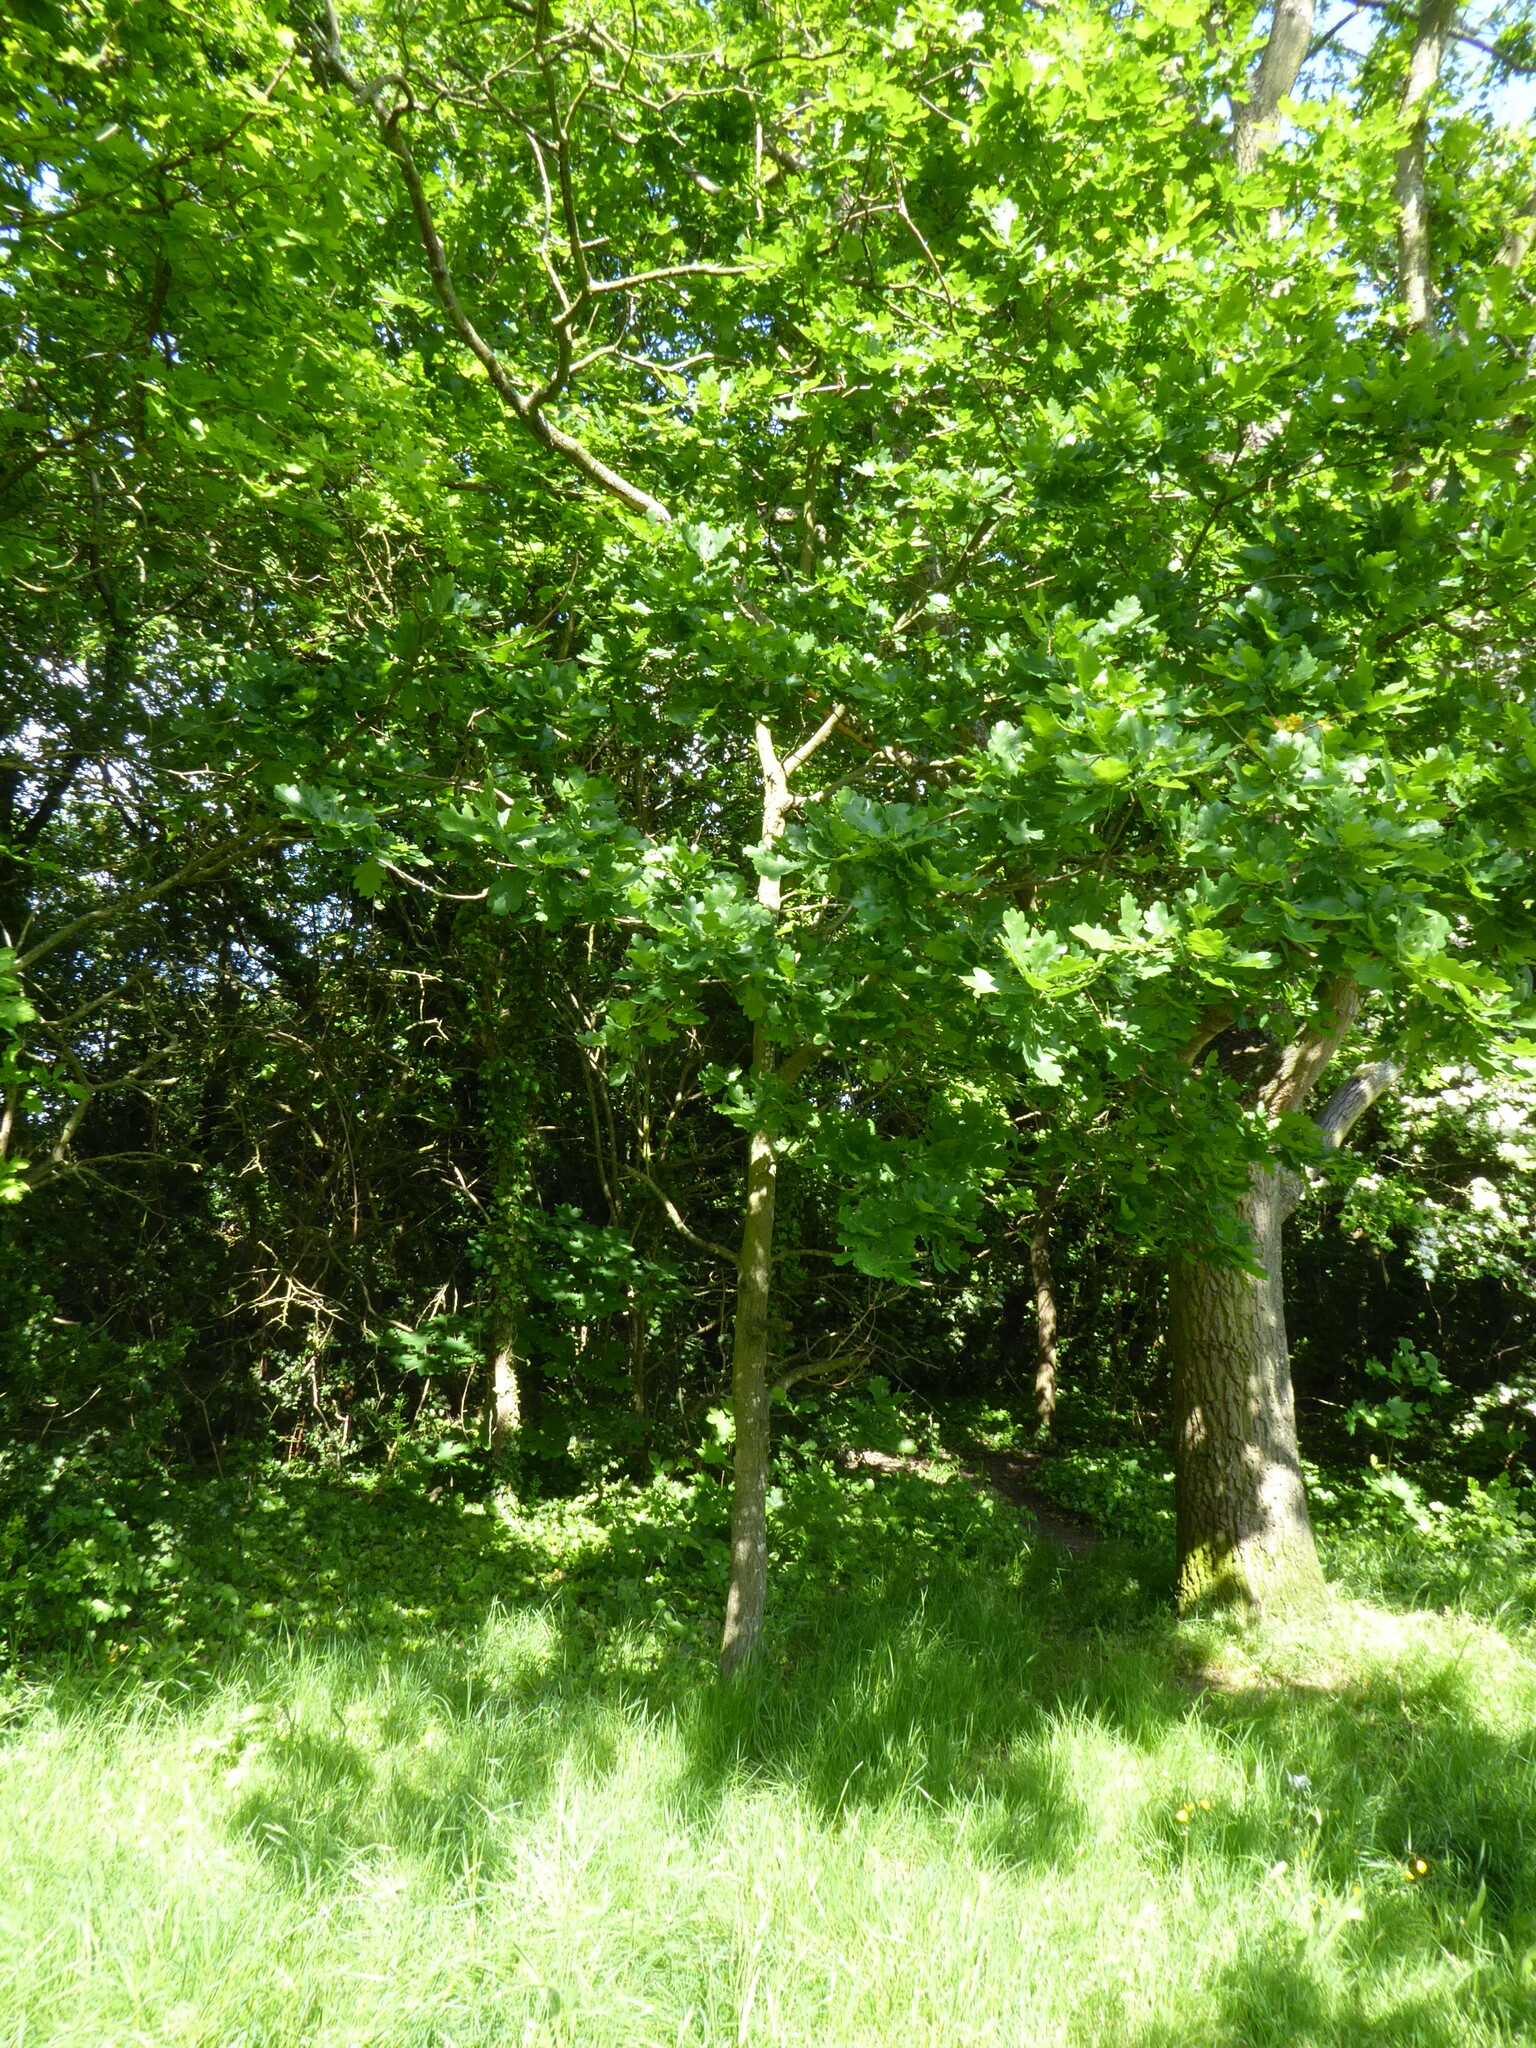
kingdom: Plantae
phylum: Tracheophyta
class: Magnoliopsida
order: Fagales
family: Fagaceae
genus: Quercus
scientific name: Quercus robur
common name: Pedunculate oak
